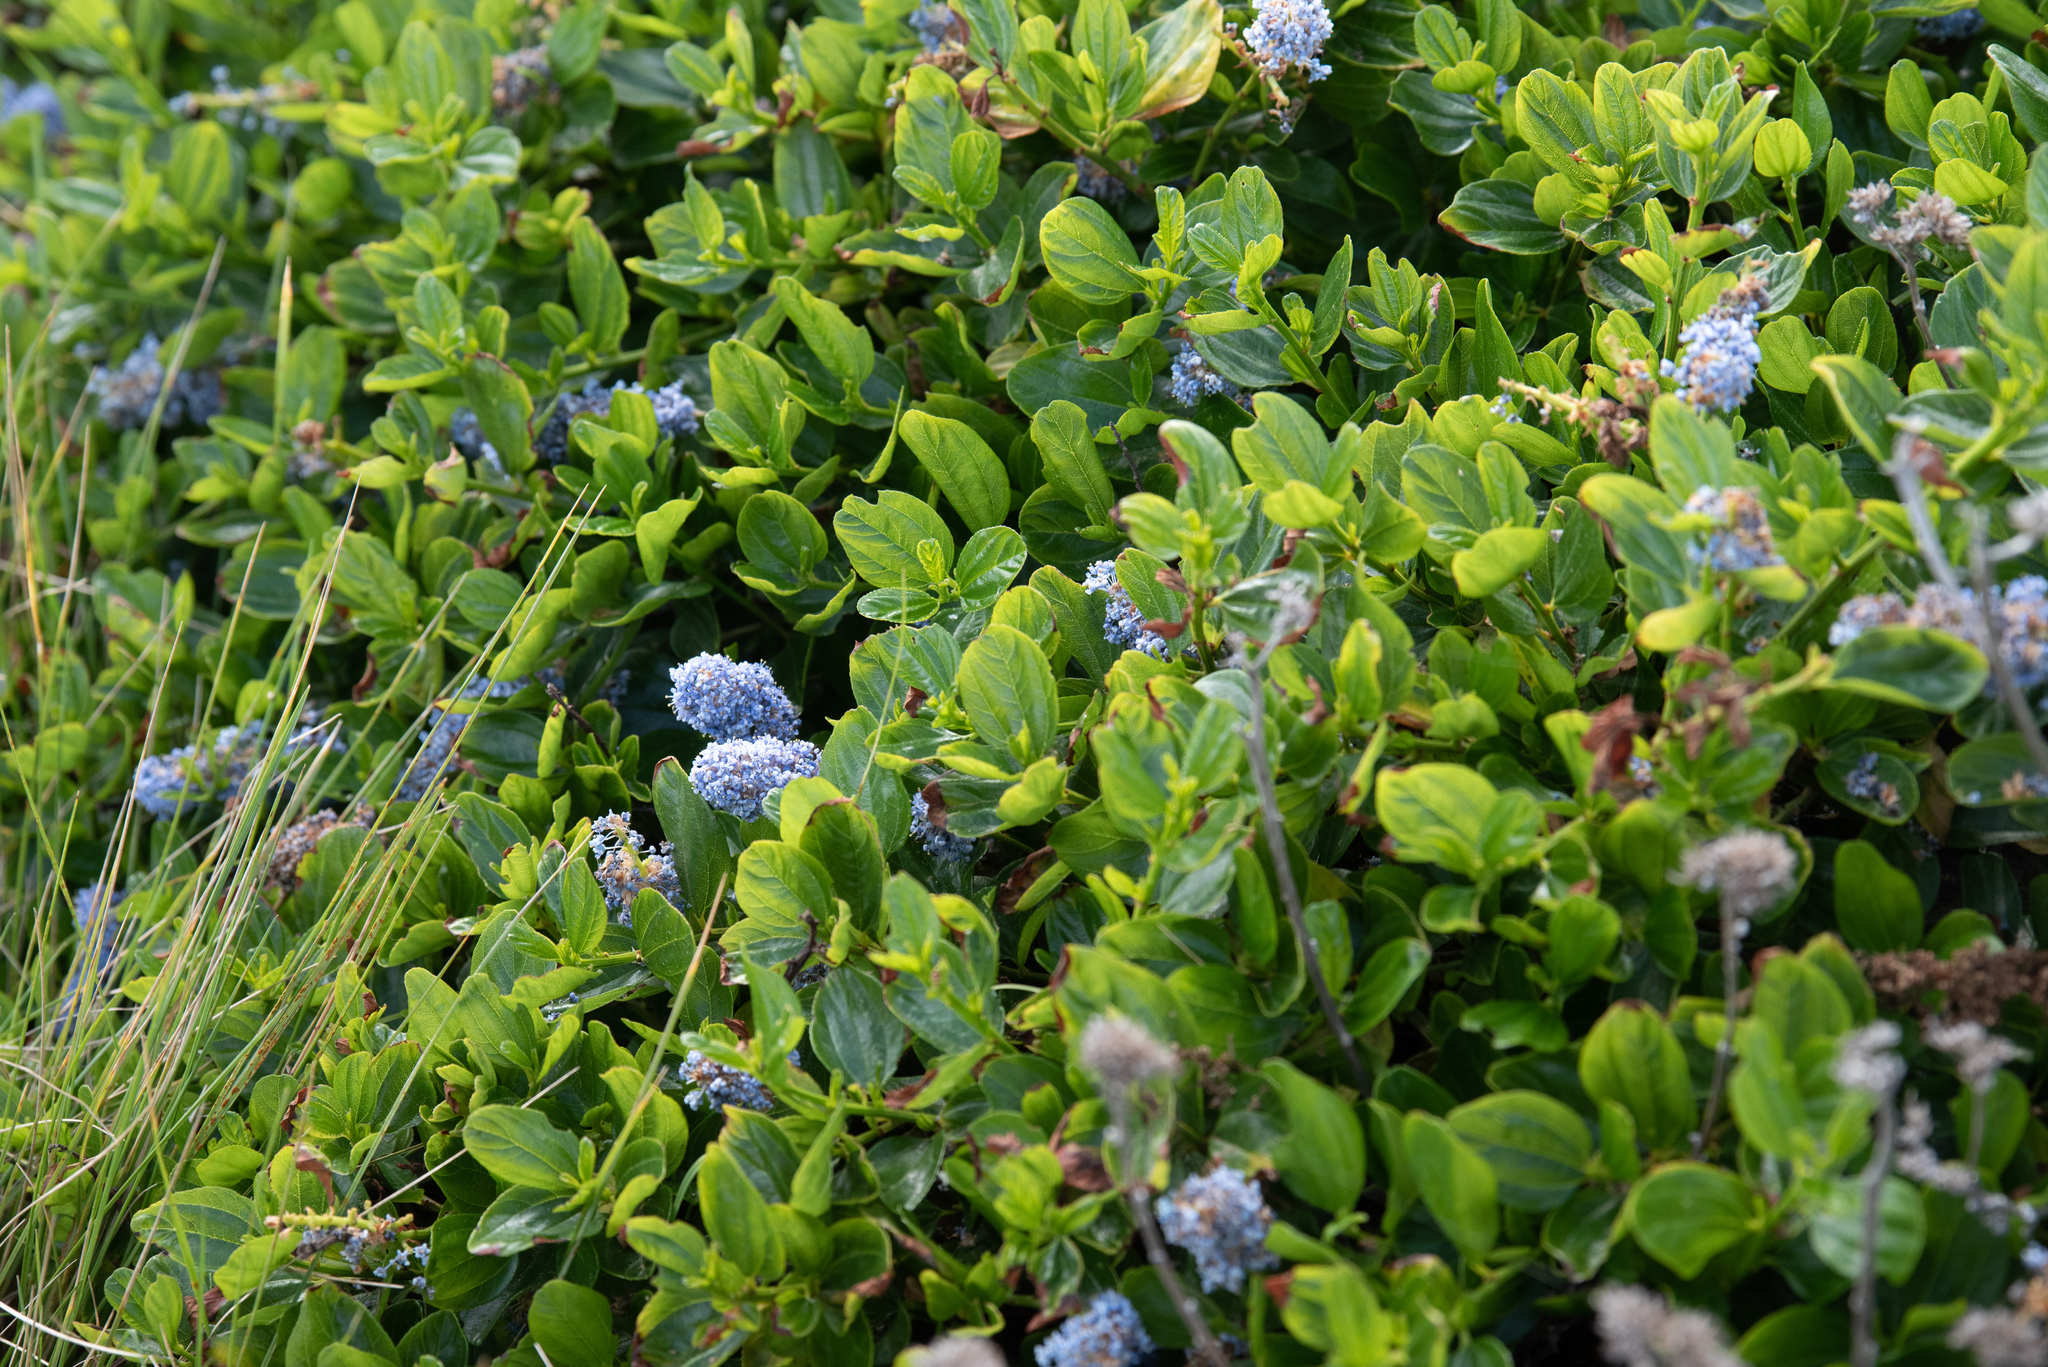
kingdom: Plantae
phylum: Tracheophyta
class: Magnoliopsida
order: Rosales
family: Rhamnaceae
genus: Ceanothus
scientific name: Ceanothus thyrsiflorus
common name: California-lilac
